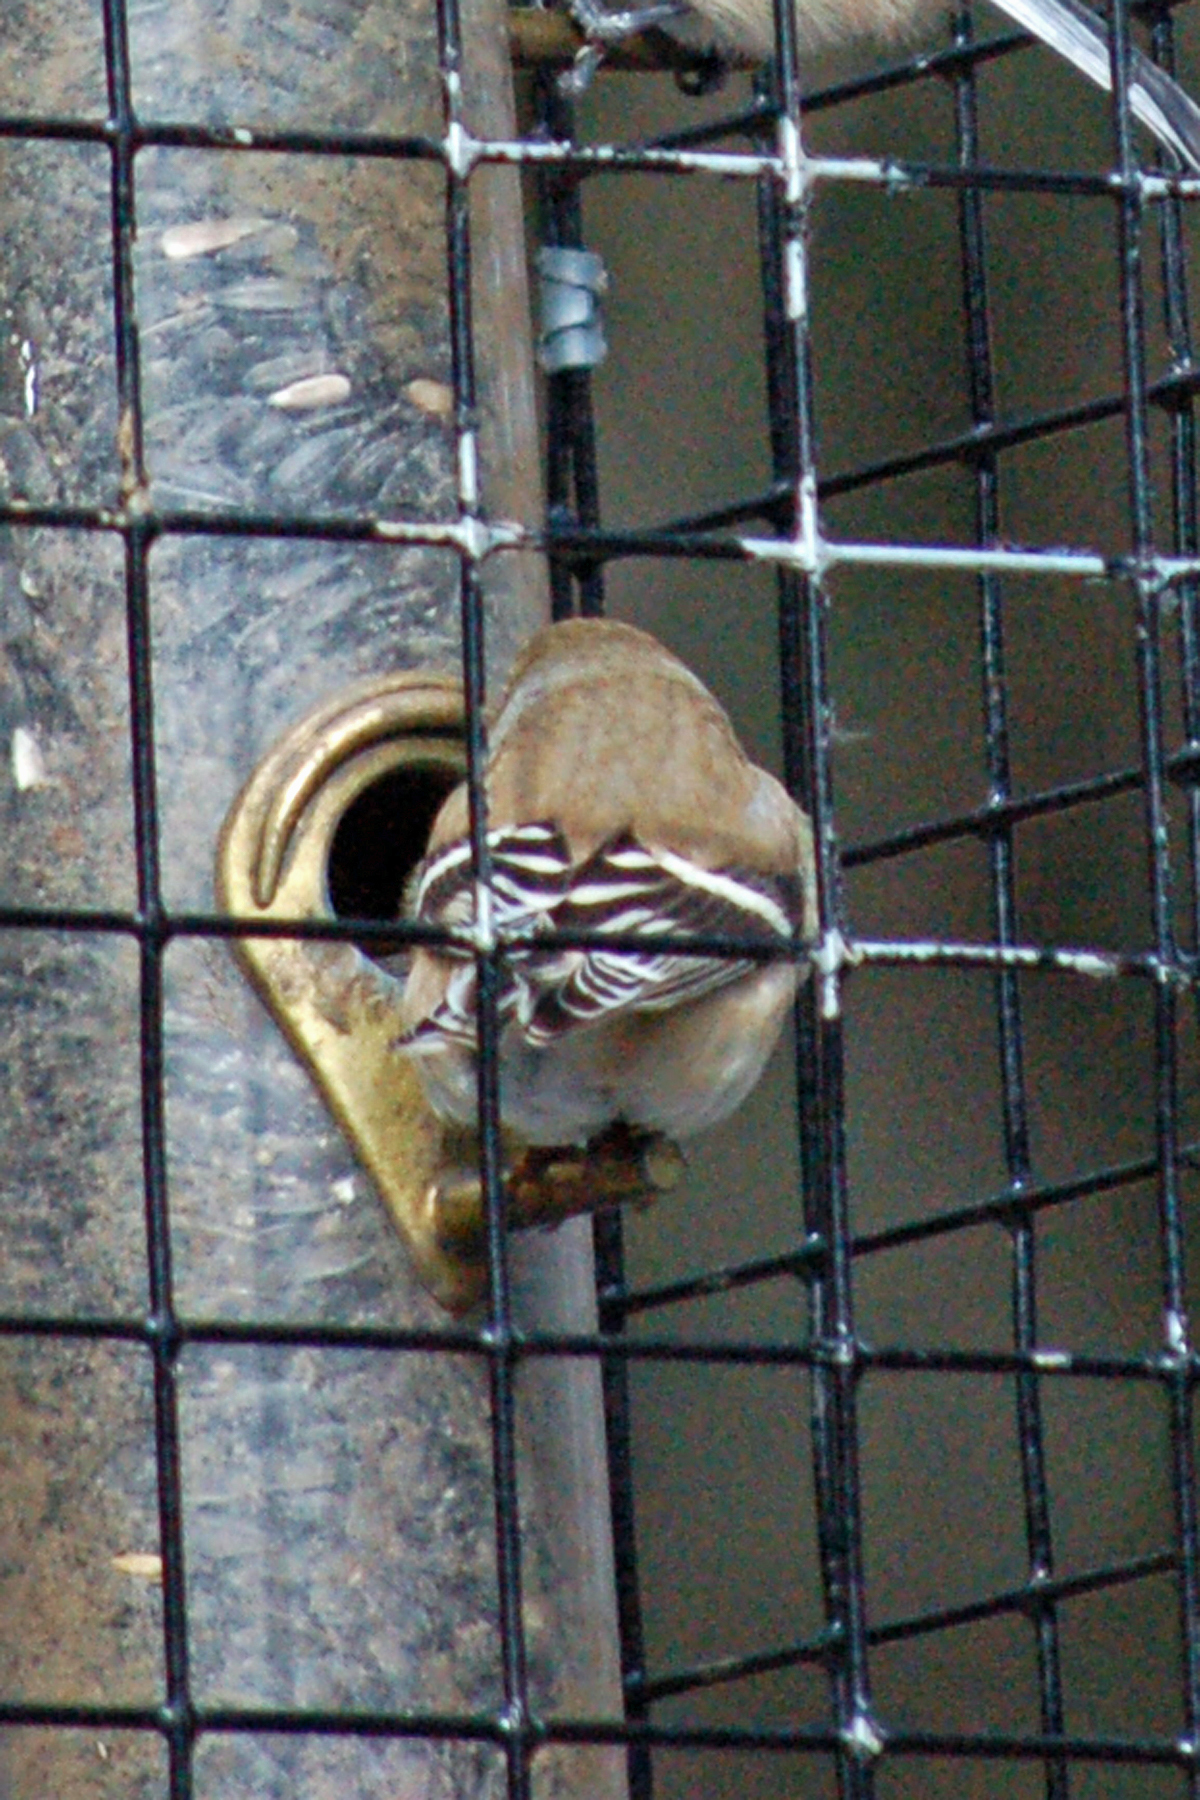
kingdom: Animalia
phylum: Chordata
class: Aves
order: Passeriformes
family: Fringillidae
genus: Spinus
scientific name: Spinus tristis
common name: American goldfinch
